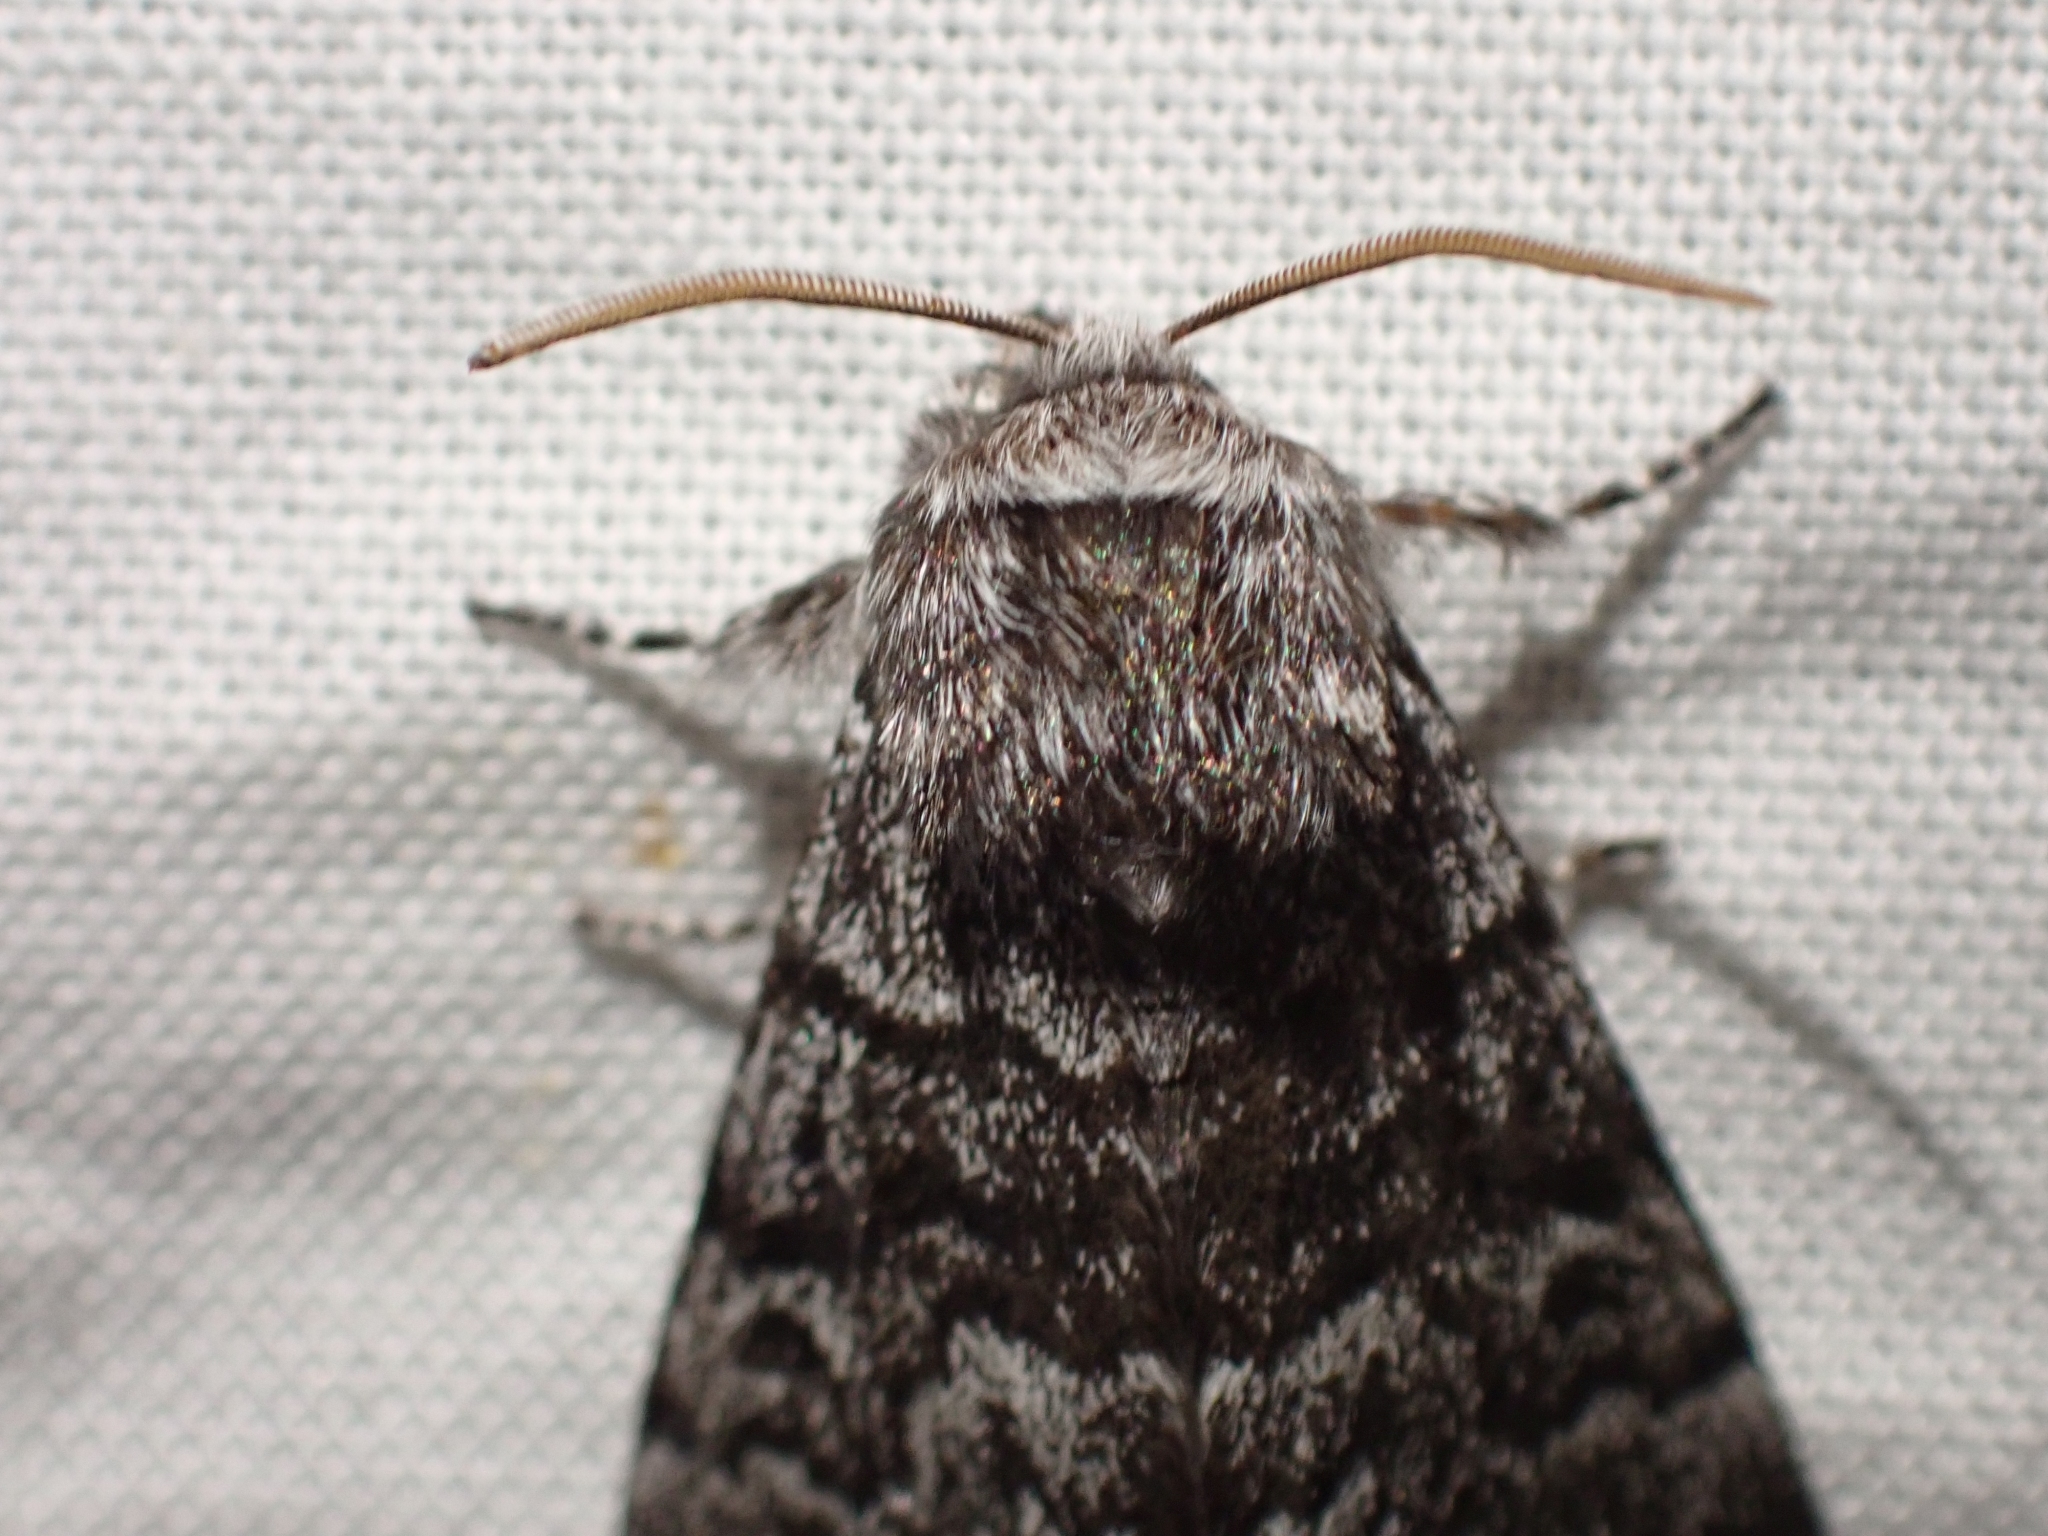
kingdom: Animalia
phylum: Arthropoda
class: Insecta
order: Lepidoptera
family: Noctuidae
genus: Panthea
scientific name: Panthea virginarius
